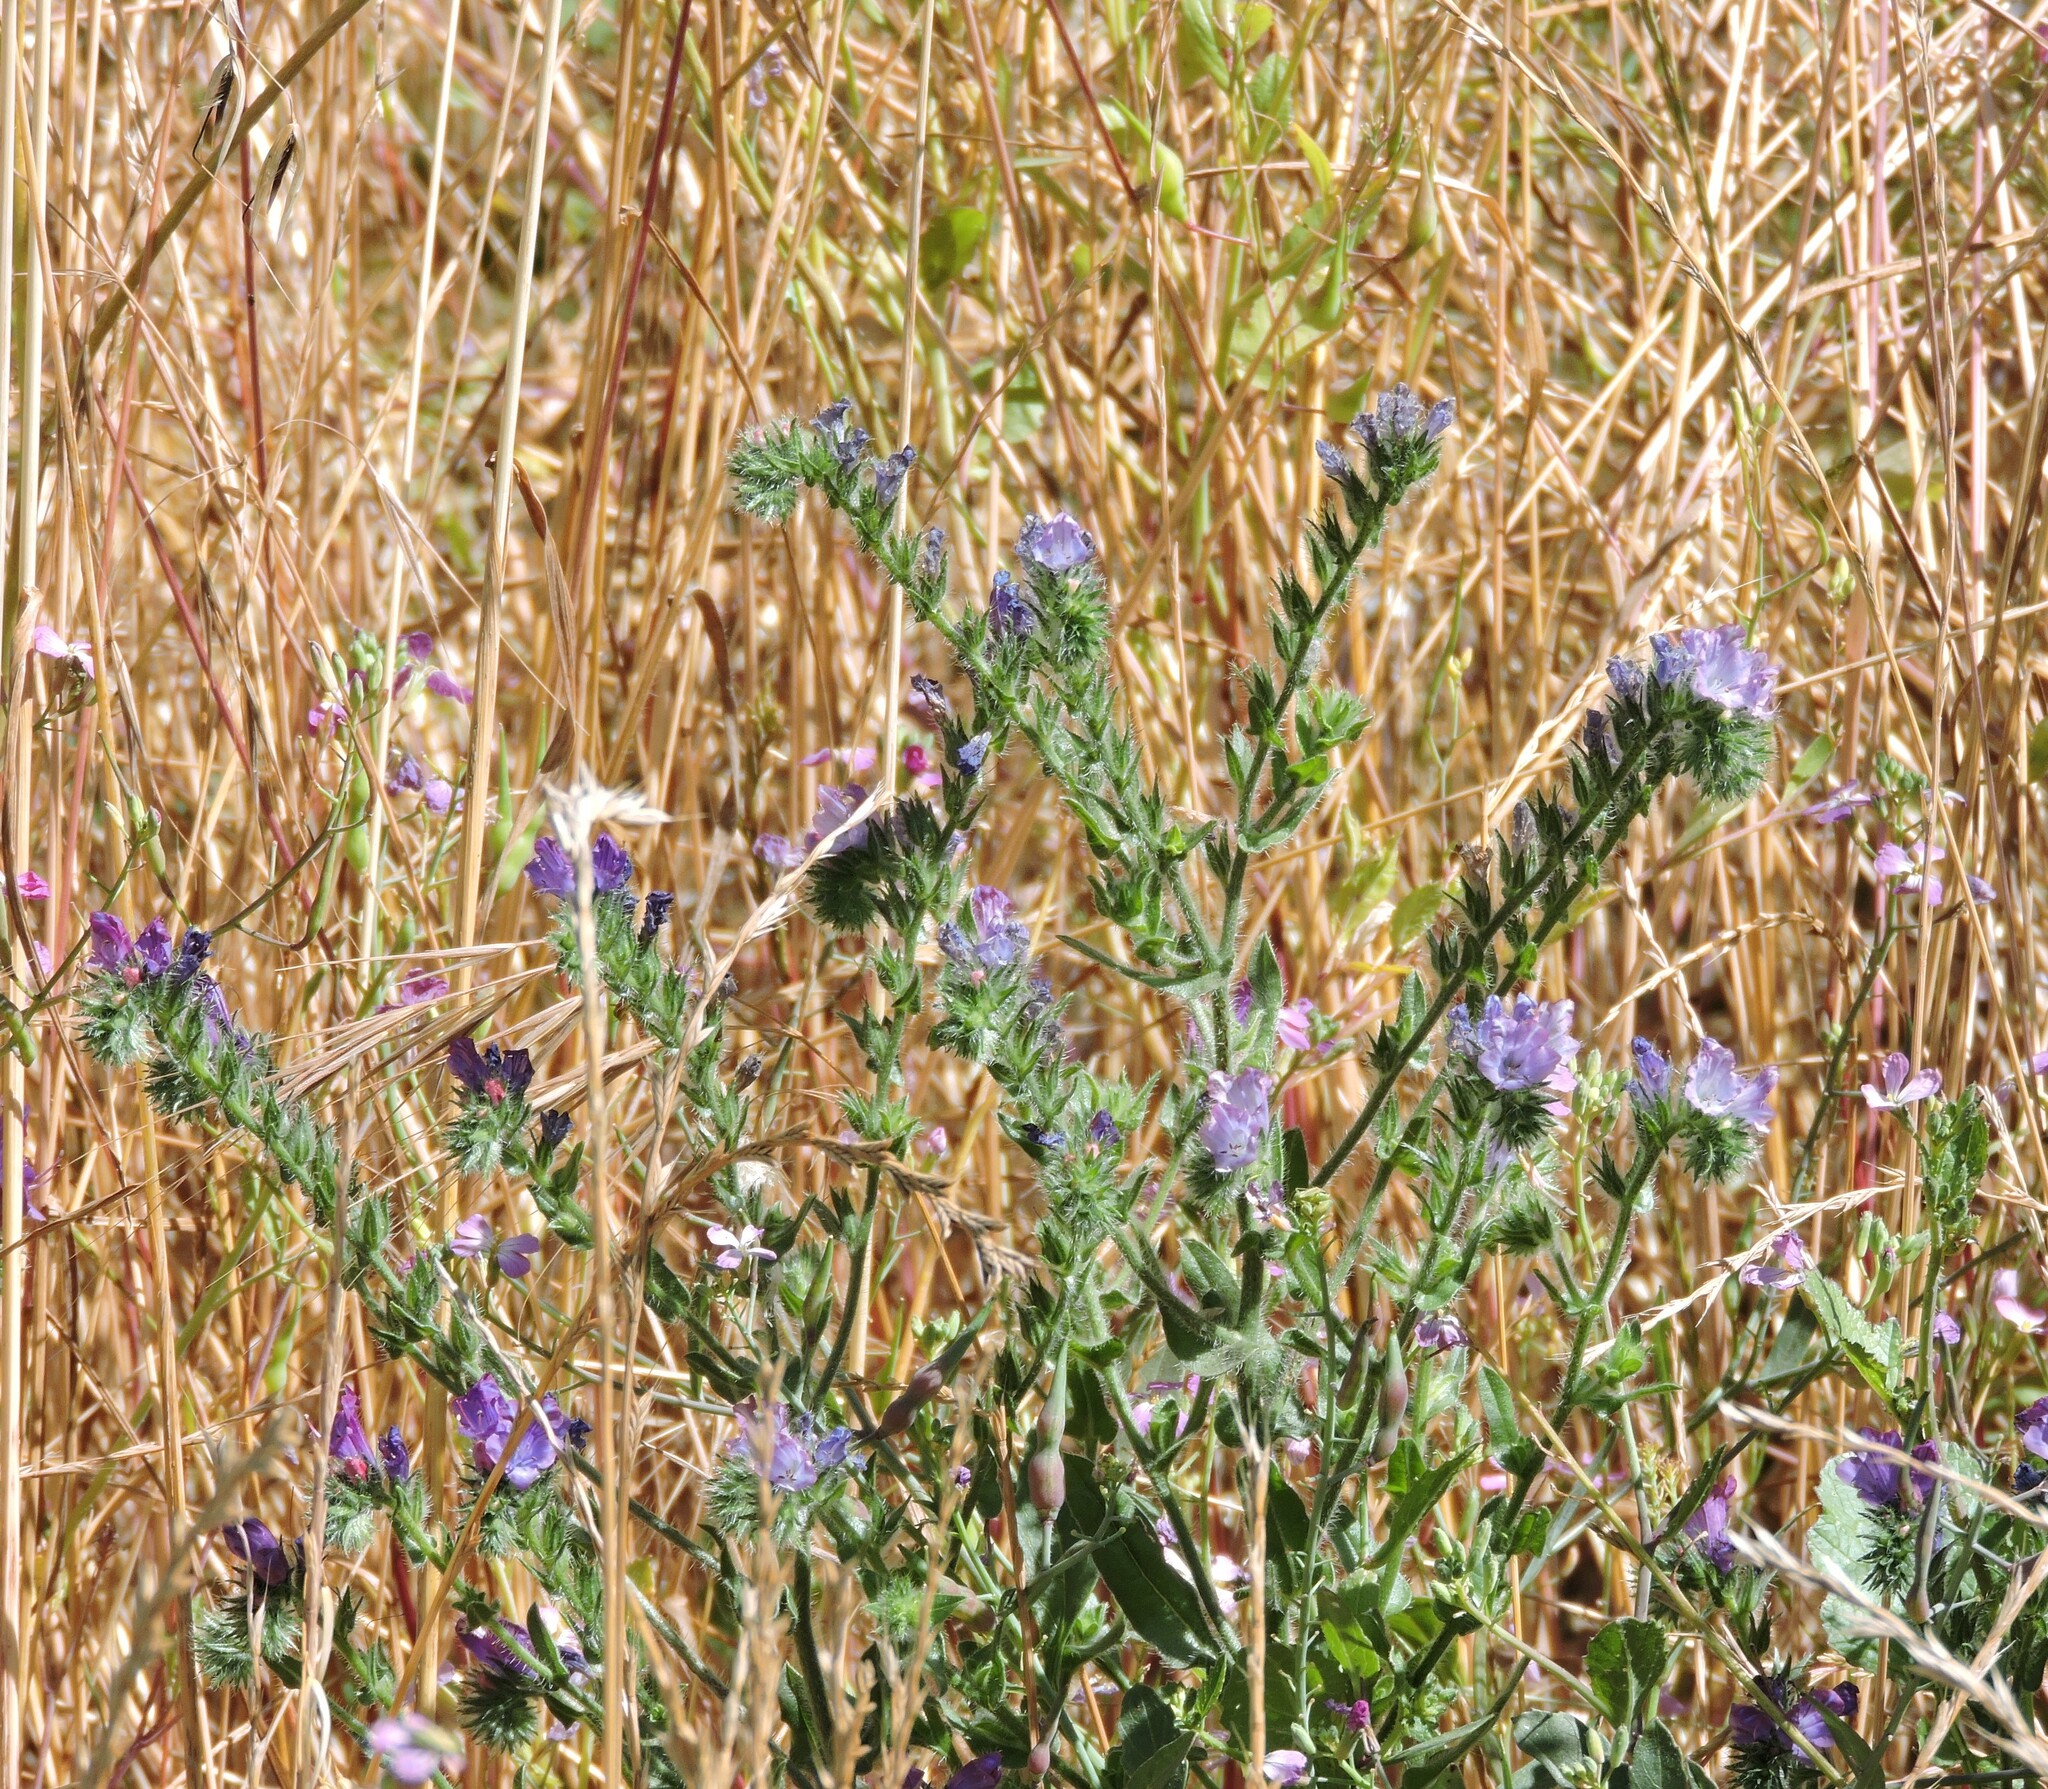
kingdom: Plantae
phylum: Tracheophyta
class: Magnoliopsida
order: Boraginales
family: Boraginaceae
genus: Echium
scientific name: Echium plantagineum
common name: Purple viper's-bugloss
